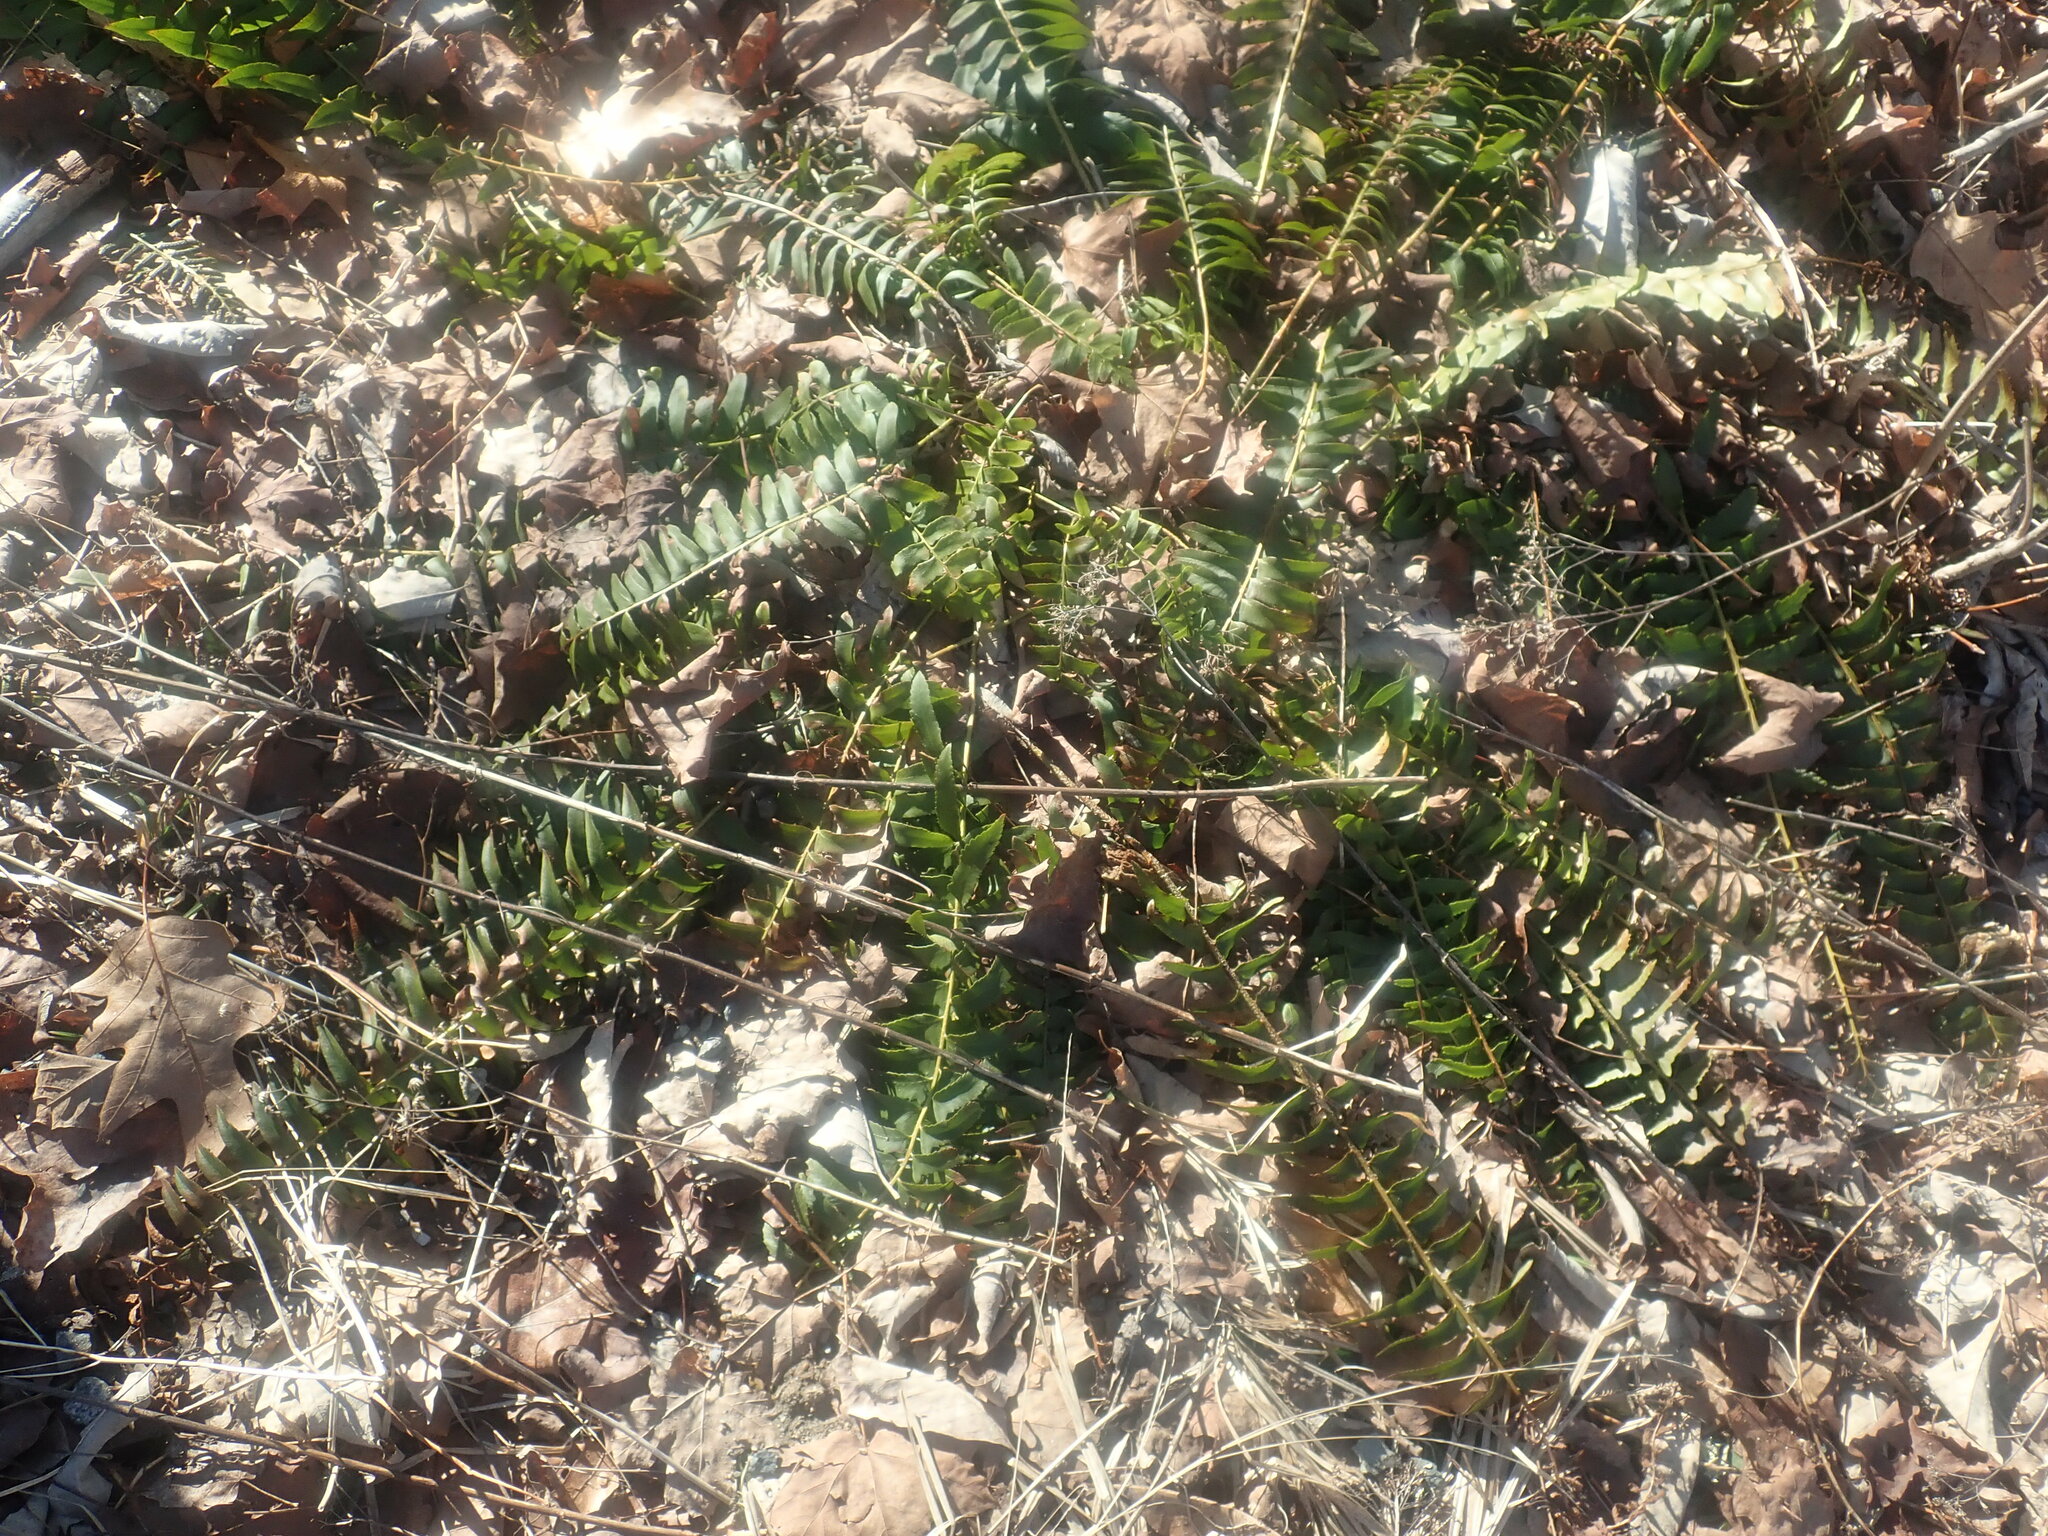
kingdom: Plantae
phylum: Tracheophyta
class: Polypodiopsida
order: Polypodiales
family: Dryopteridaceae
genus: Polystichum
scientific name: Polystichum acrostichoides
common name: Christmas fern
